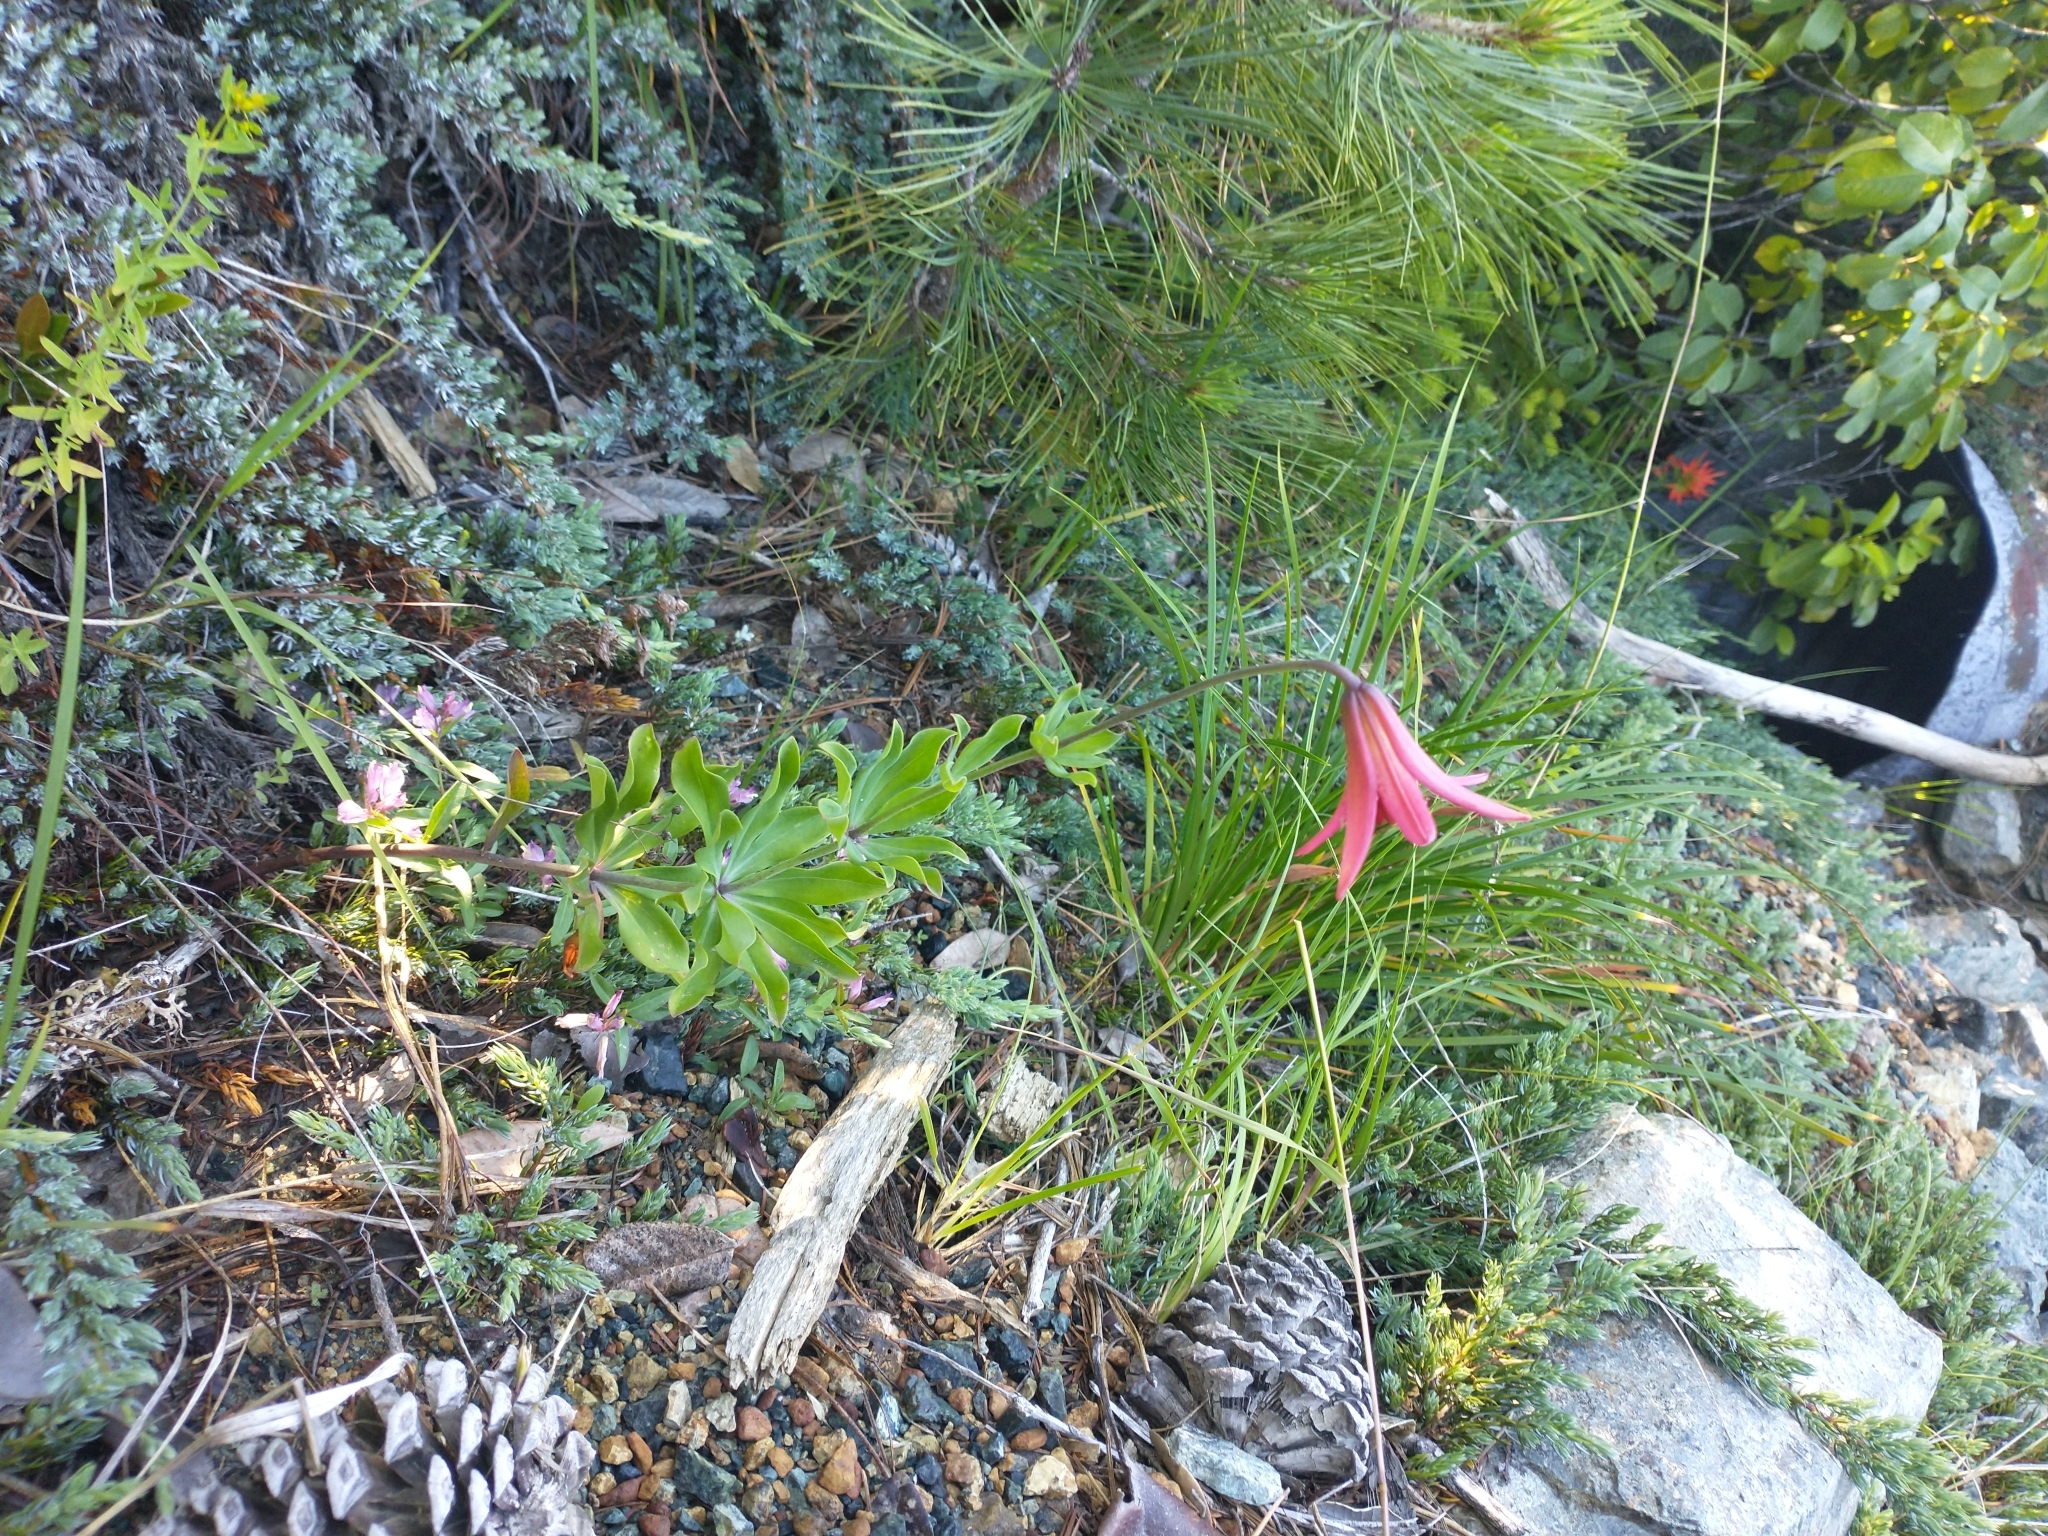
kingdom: Plantae
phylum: Tracheophyta
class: Liliopsida
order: Liliales
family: Liliaceae
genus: Lilium
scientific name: Lilium bolanderi
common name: Bolander's lily
